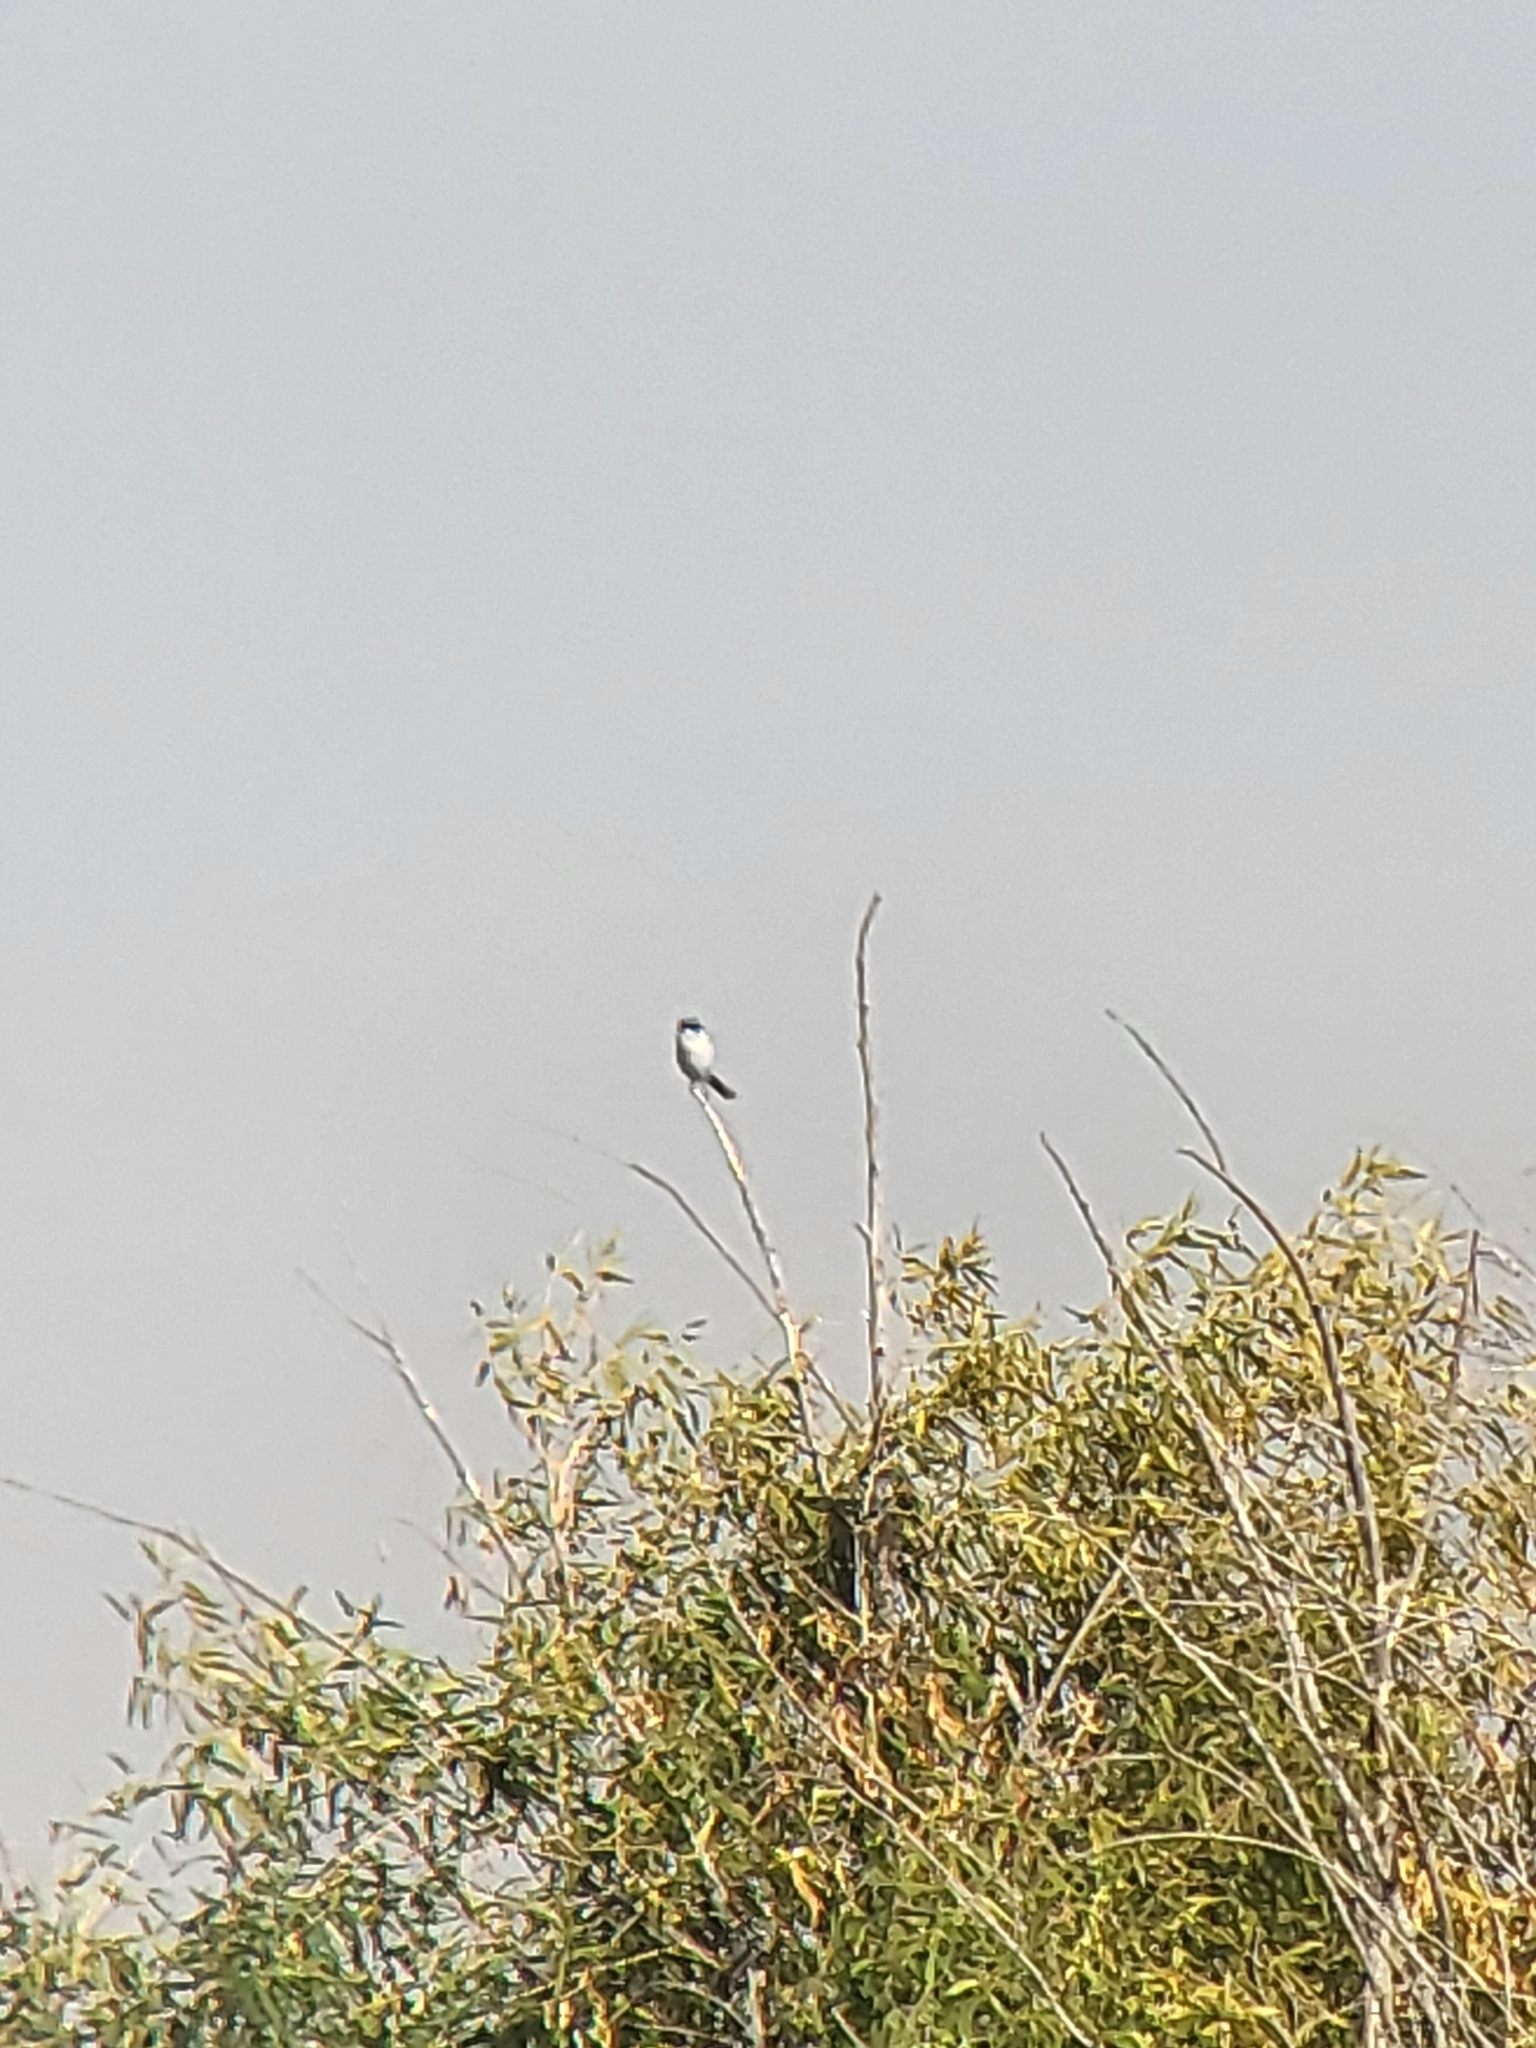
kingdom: Animalia
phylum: Chordata
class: Aves
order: Passeriformes
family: Laniidae
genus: Lanius
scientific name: Lanius ludovicianus
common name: Loggerhead shrike
